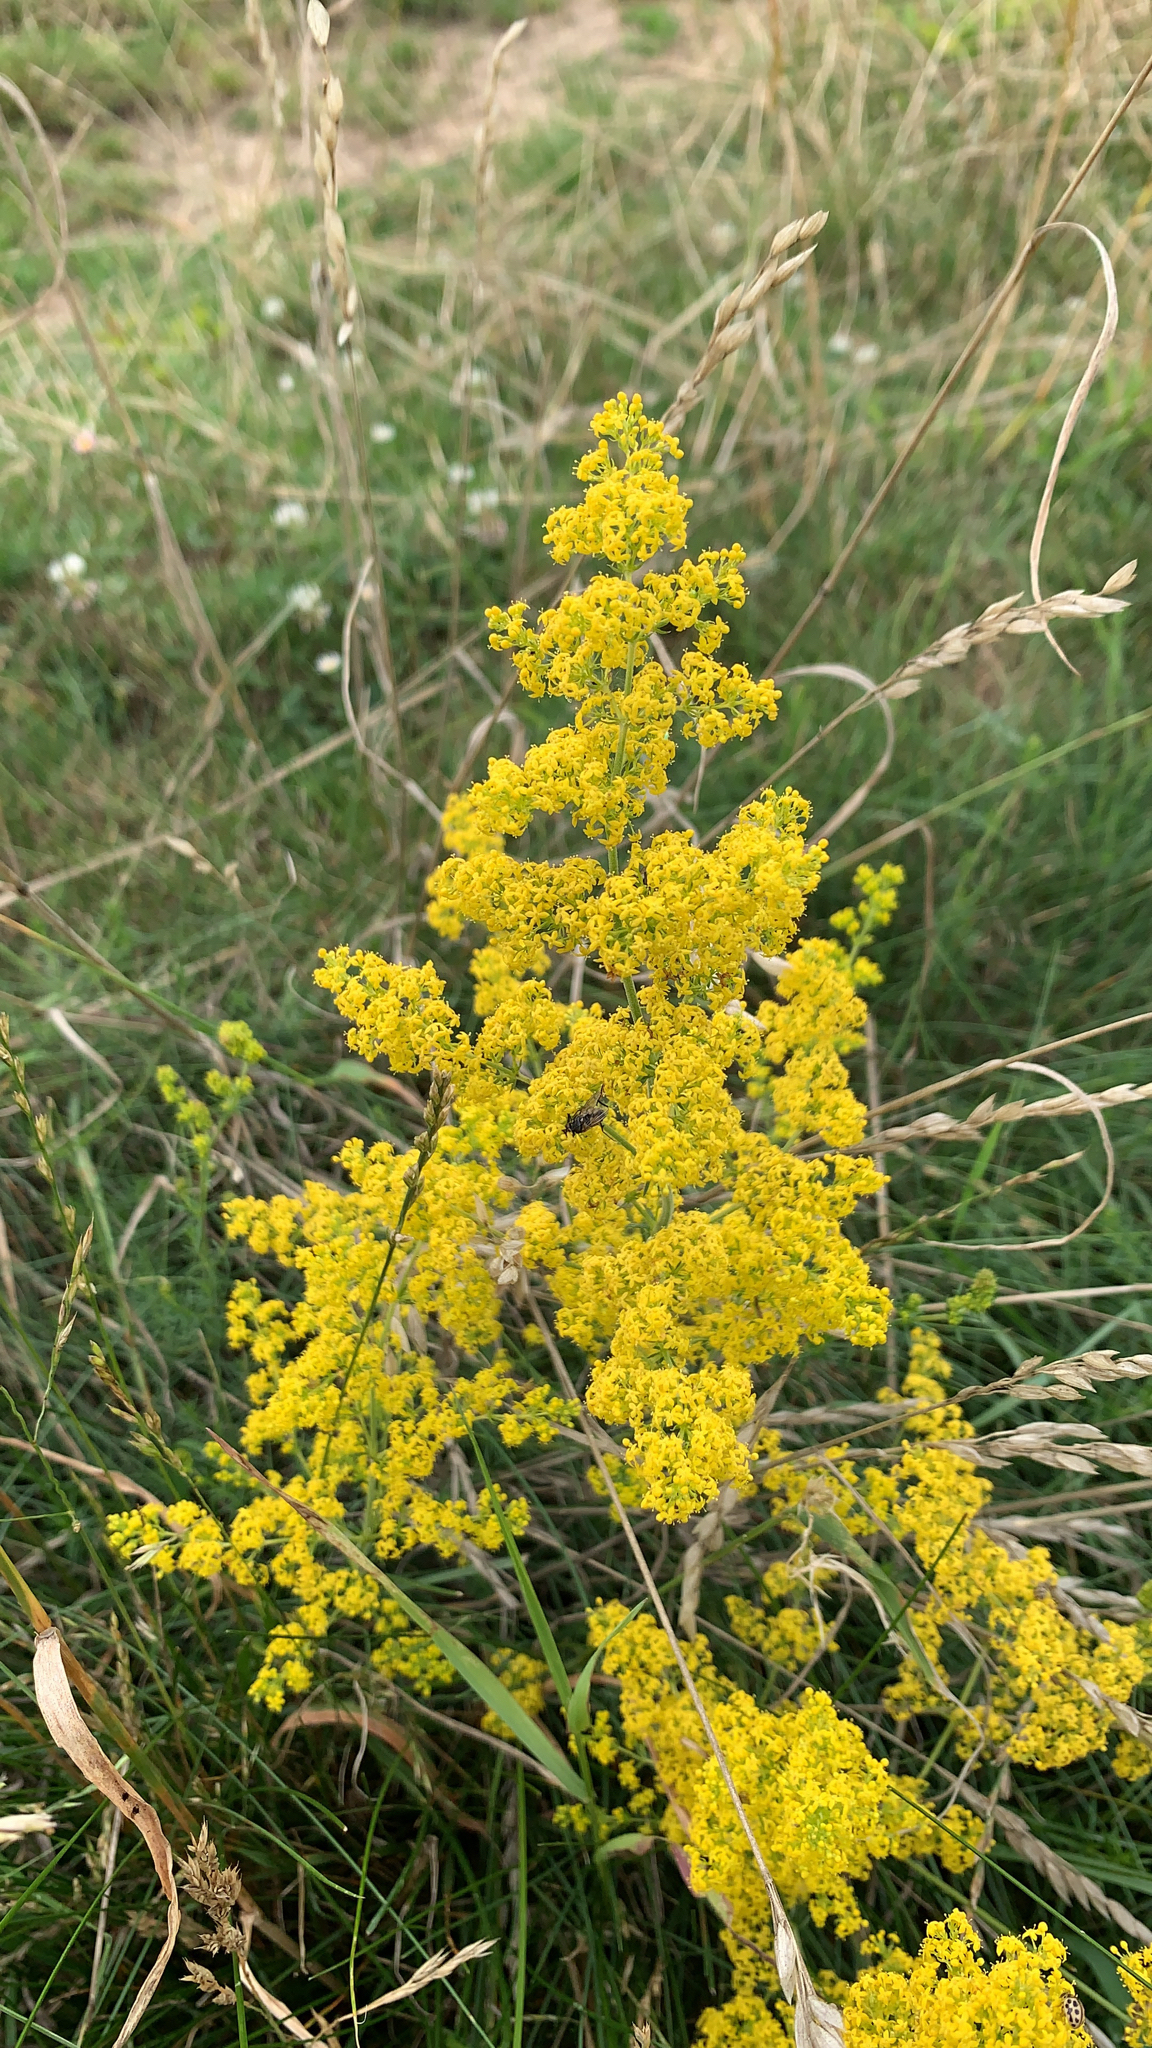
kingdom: Plantae
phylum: Tracheophyta
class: Magnoliopsida
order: Gentianales
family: Rubiaceae
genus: Galium
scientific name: Galium verum
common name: Lady's bedstraw
